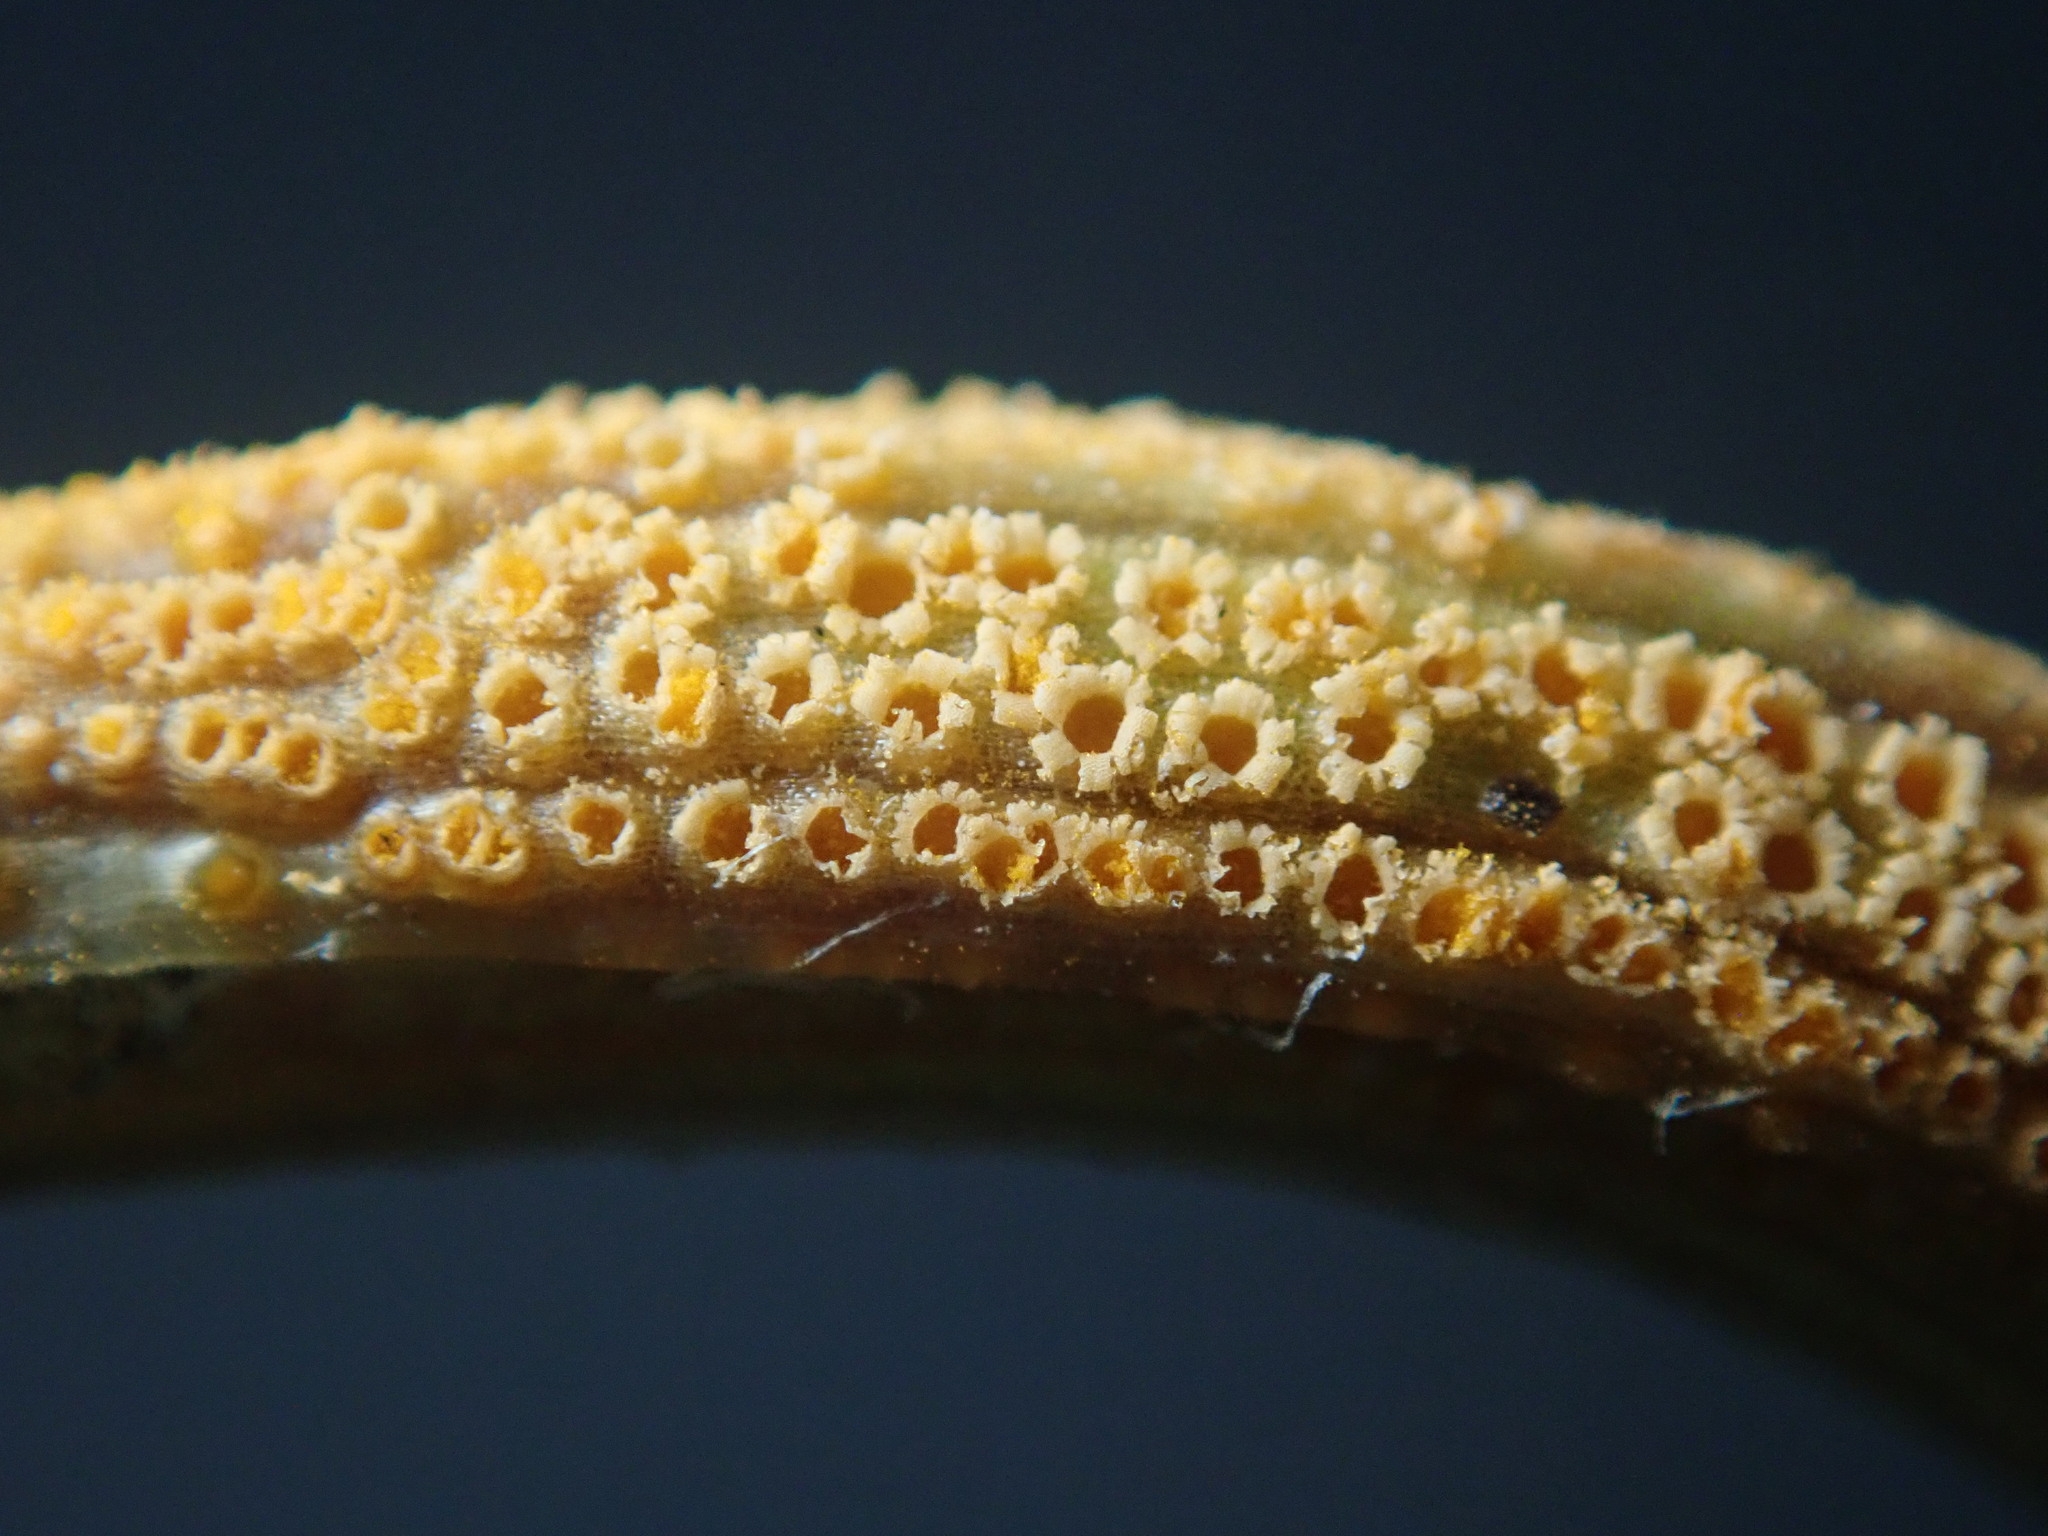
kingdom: Fungi
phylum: Basidiomycota
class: Pucciniomycetes
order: Pucciniales
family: Pucciniaceae
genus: Puccinia
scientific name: Puccinia lagenophorae
